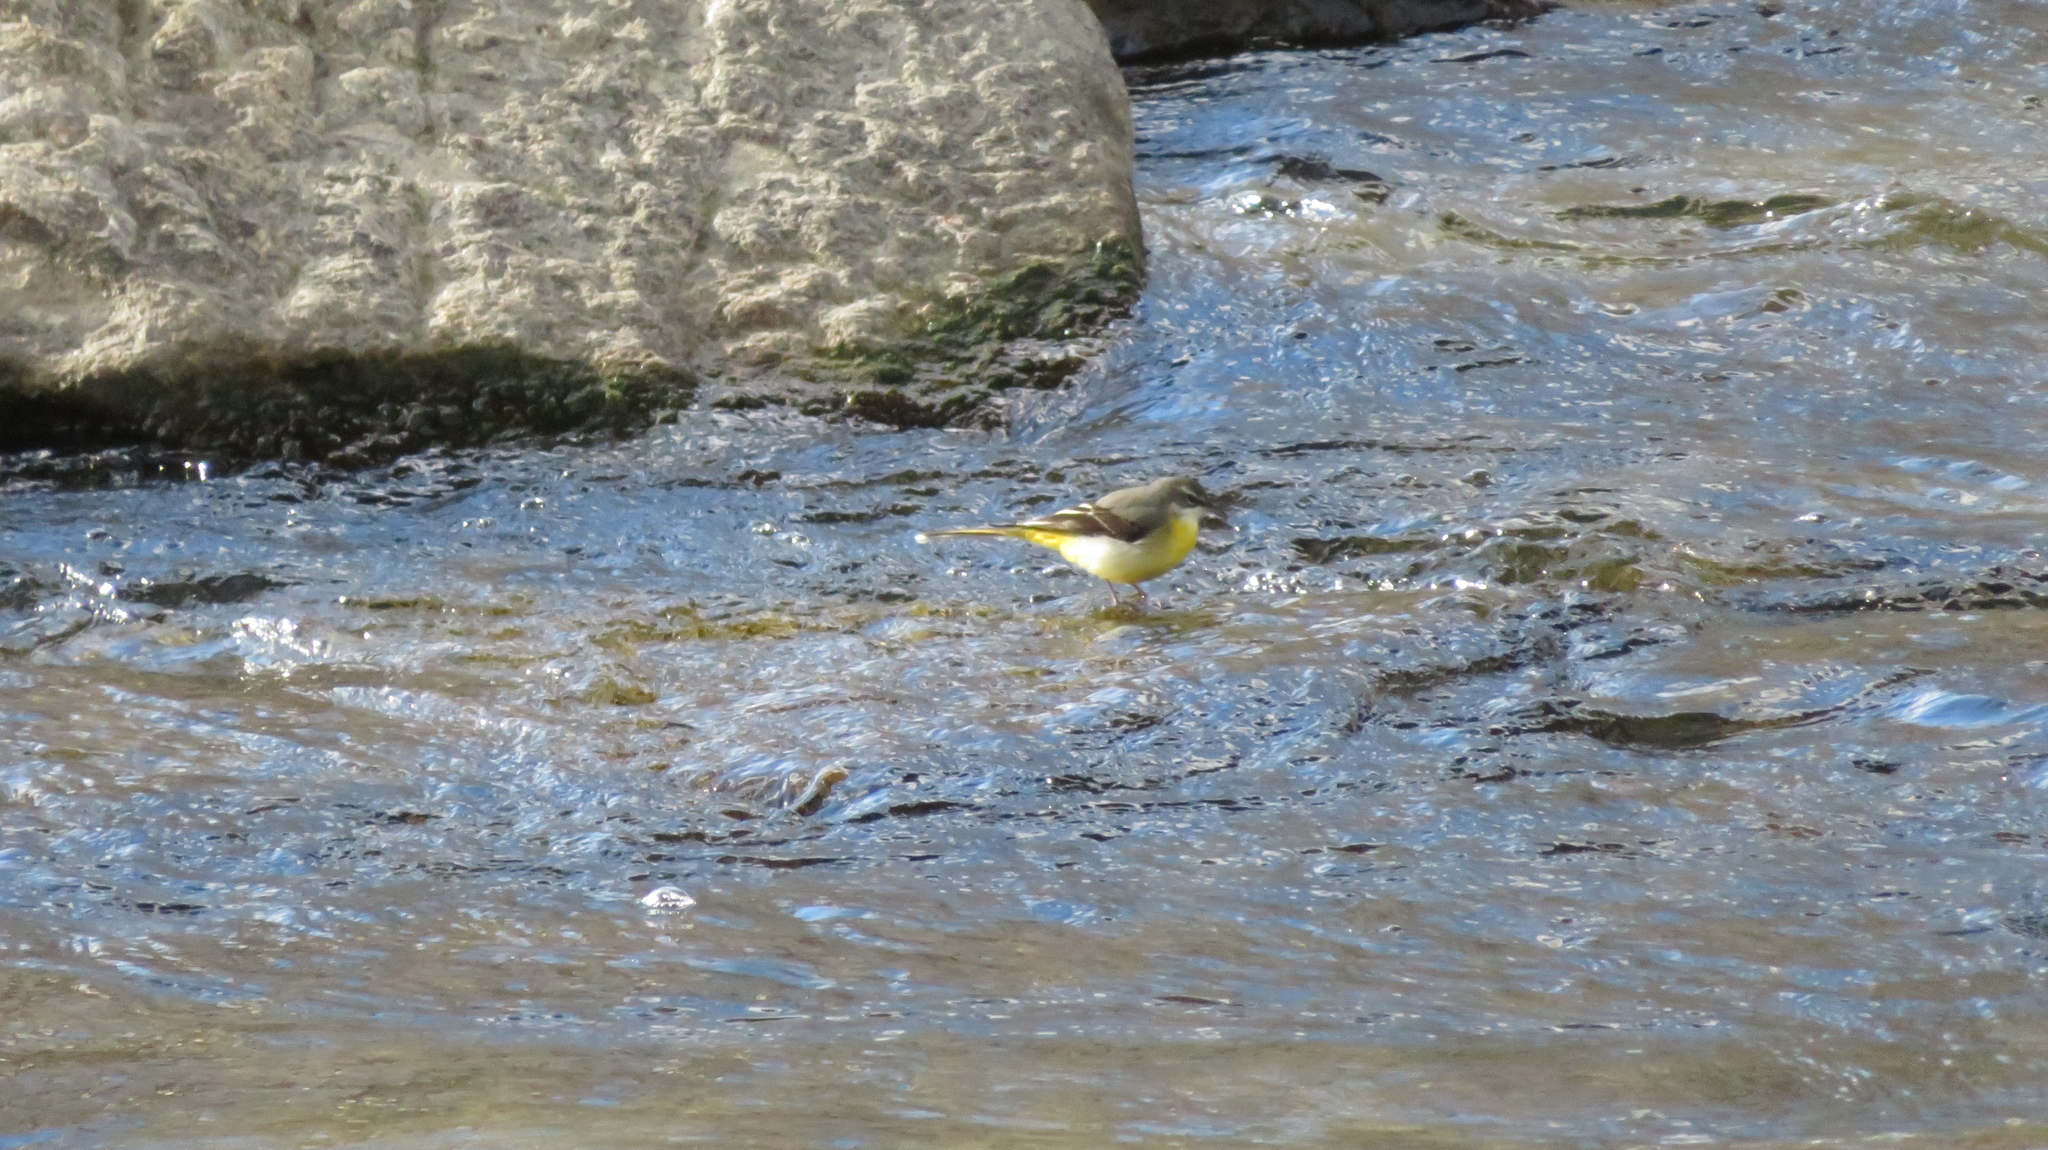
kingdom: Animalia
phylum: Chordata
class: Aves
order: Passeriformes
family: Motacillidae
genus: Motacilla
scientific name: Motacilla cinerea
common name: Grey wagtail
